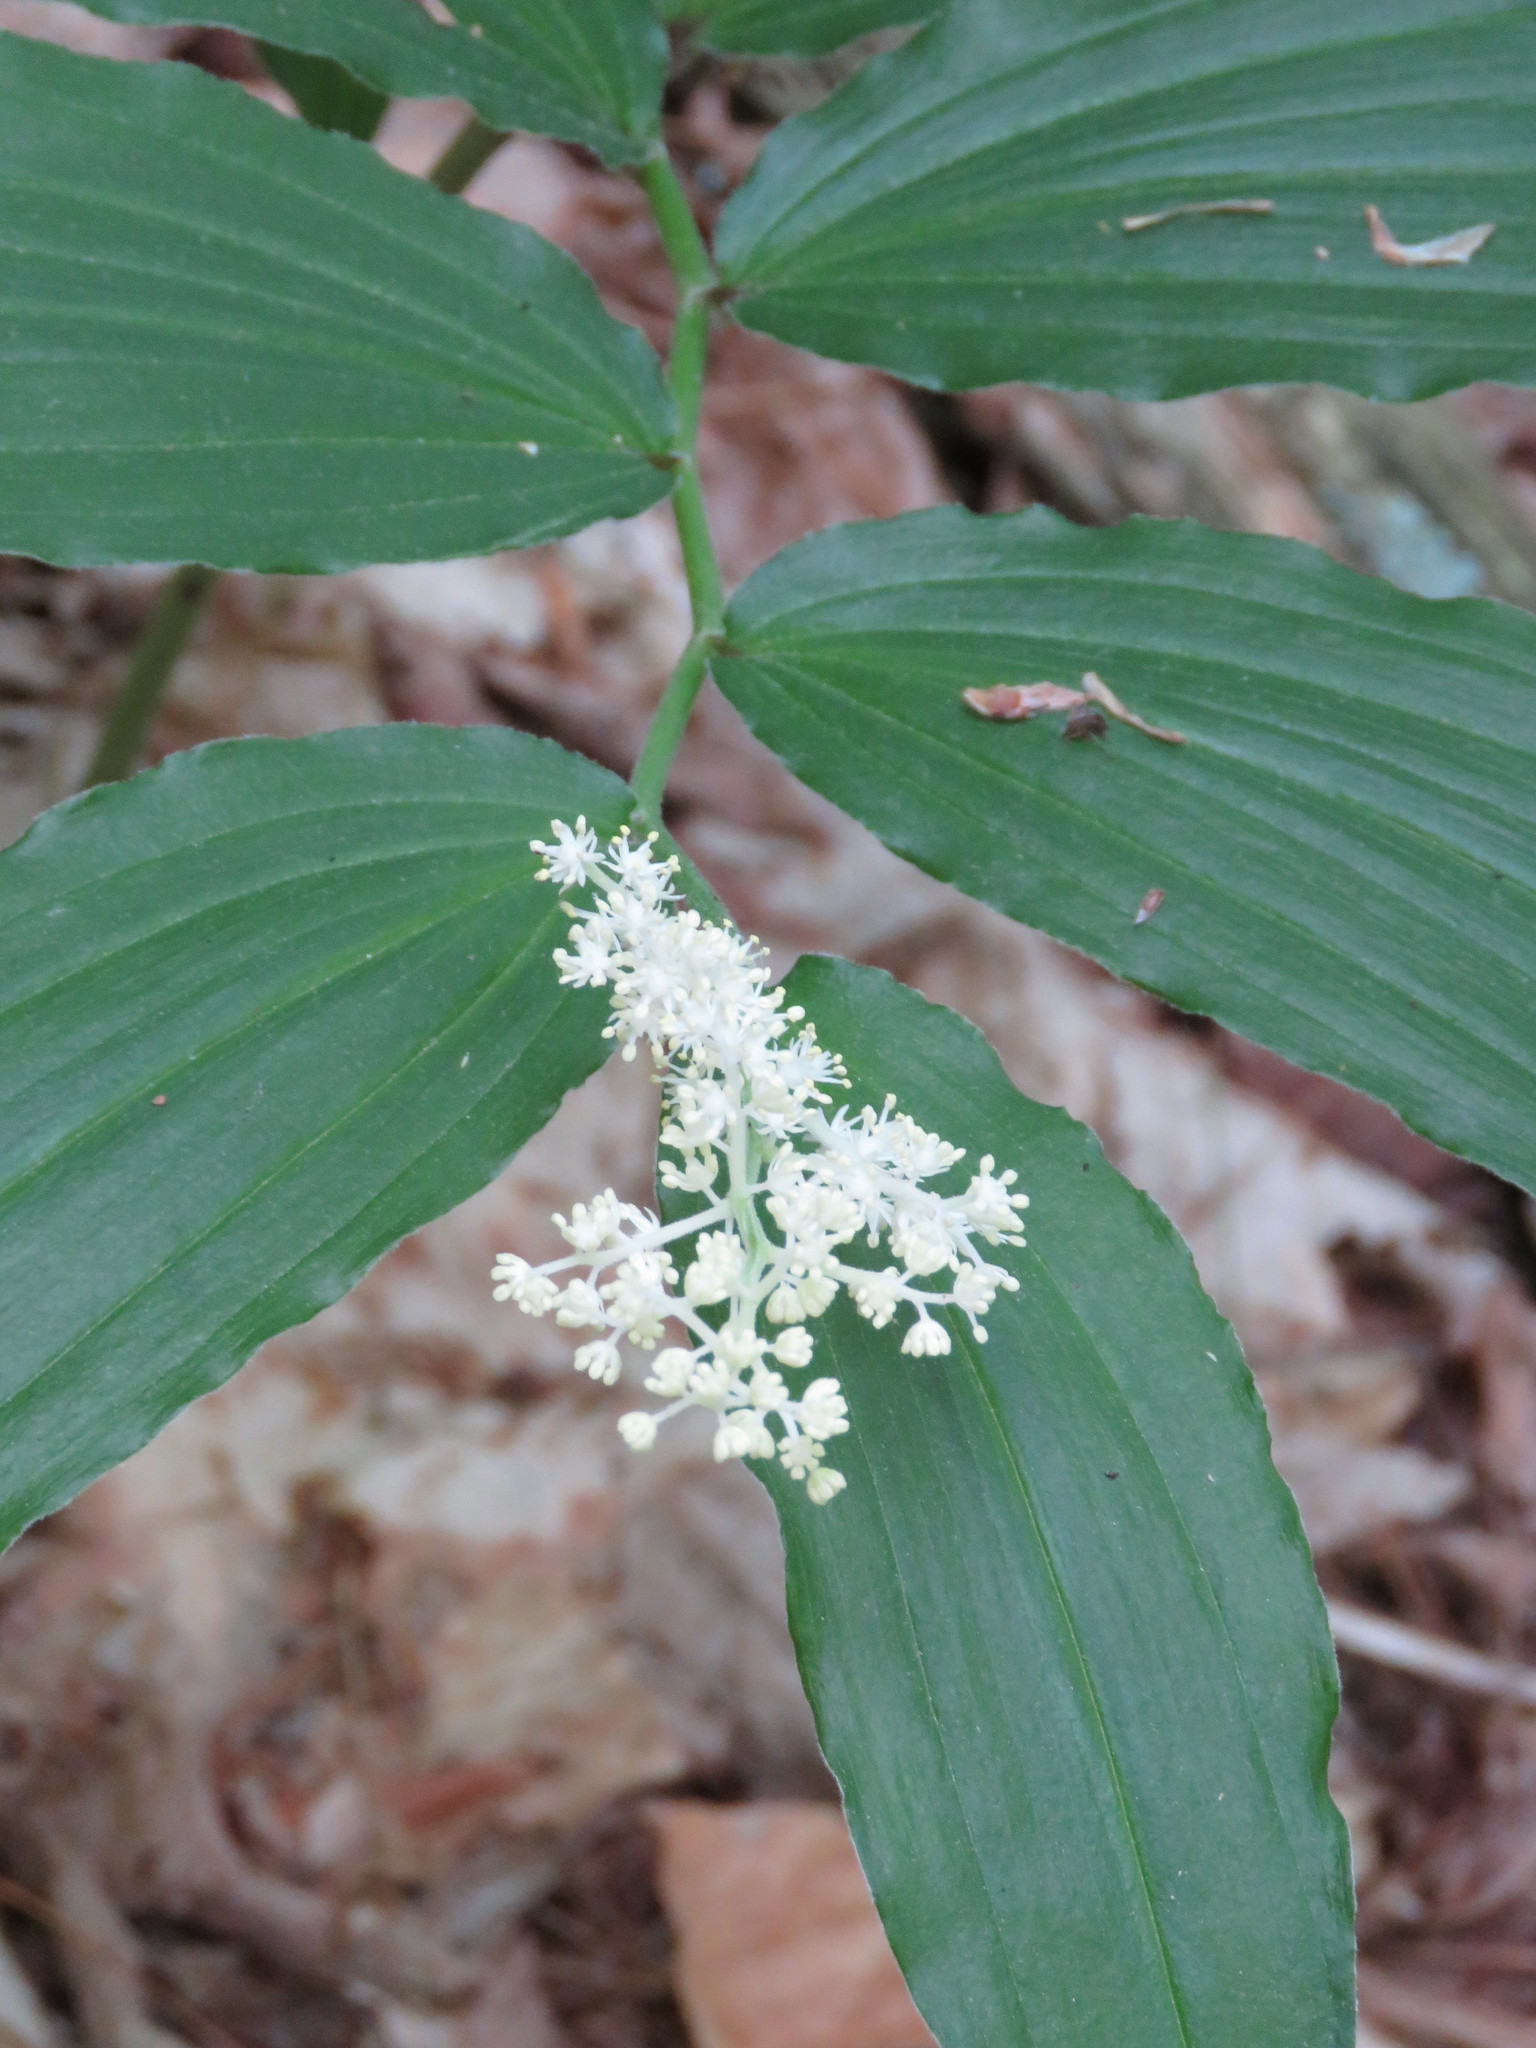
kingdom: Plantae
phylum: Tracheophyta
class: Liliopsida
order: Asparagales
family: Asparagaceae
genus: Maianthemum
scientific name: Maianthemum racemosum
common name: False spikenard
